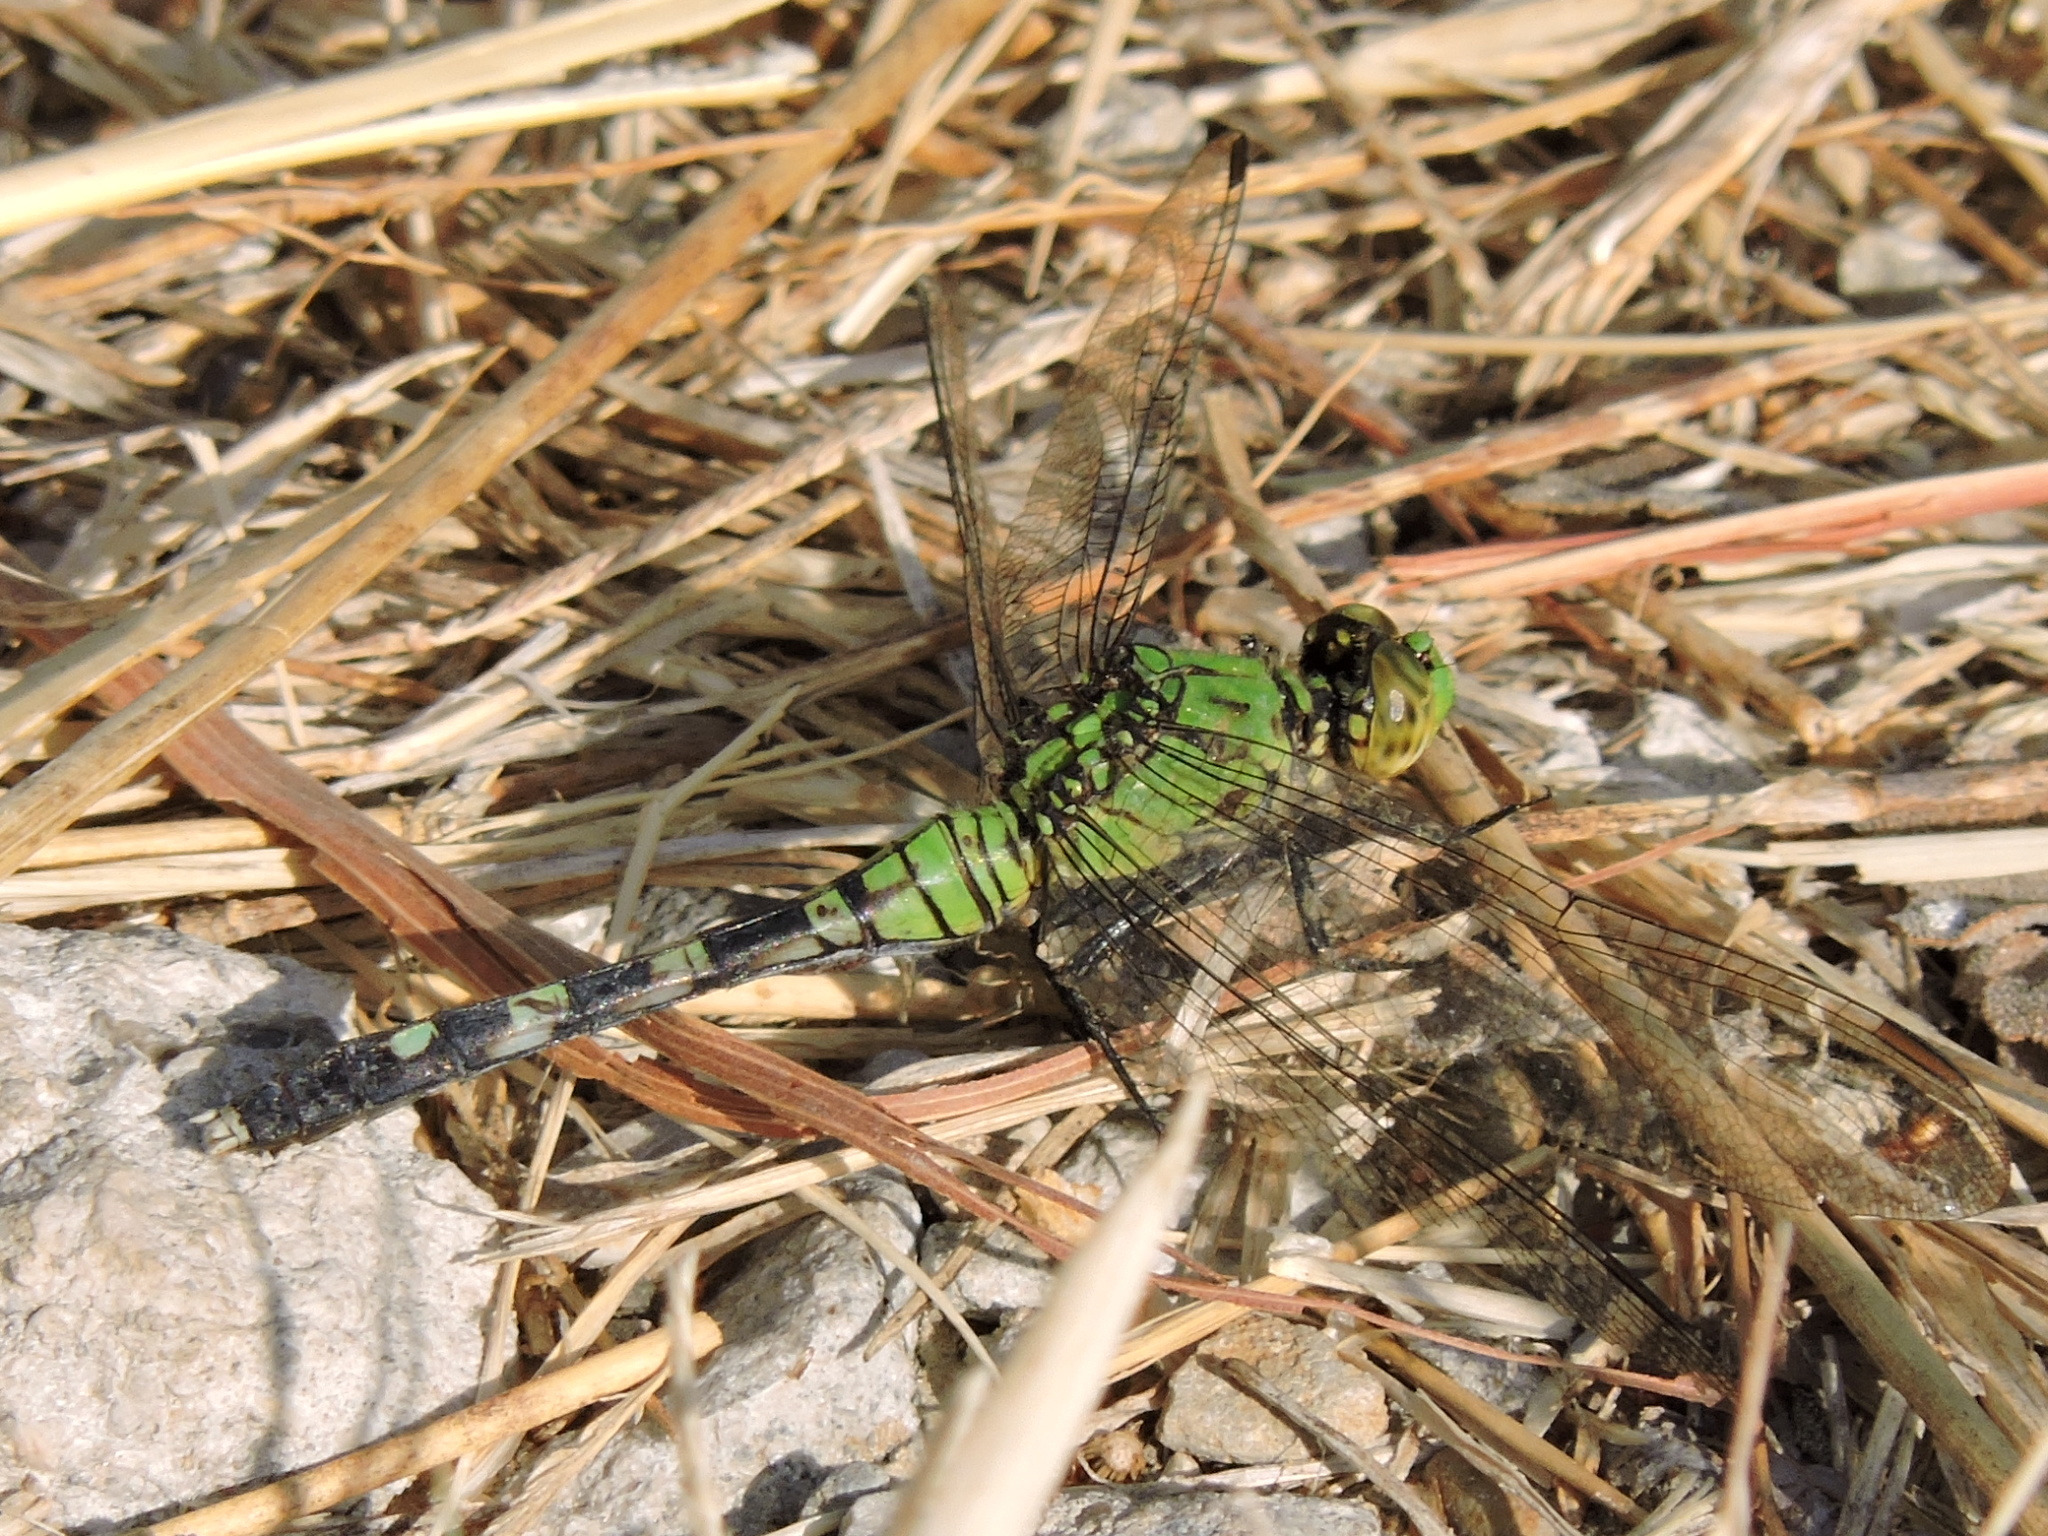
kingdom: Animalia
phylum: Arthropoda
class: Insecta
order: Odonata
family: Libellulidae
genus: Erythemis
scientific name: Erythemis simplicicollis
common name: Eastern pondhawk
